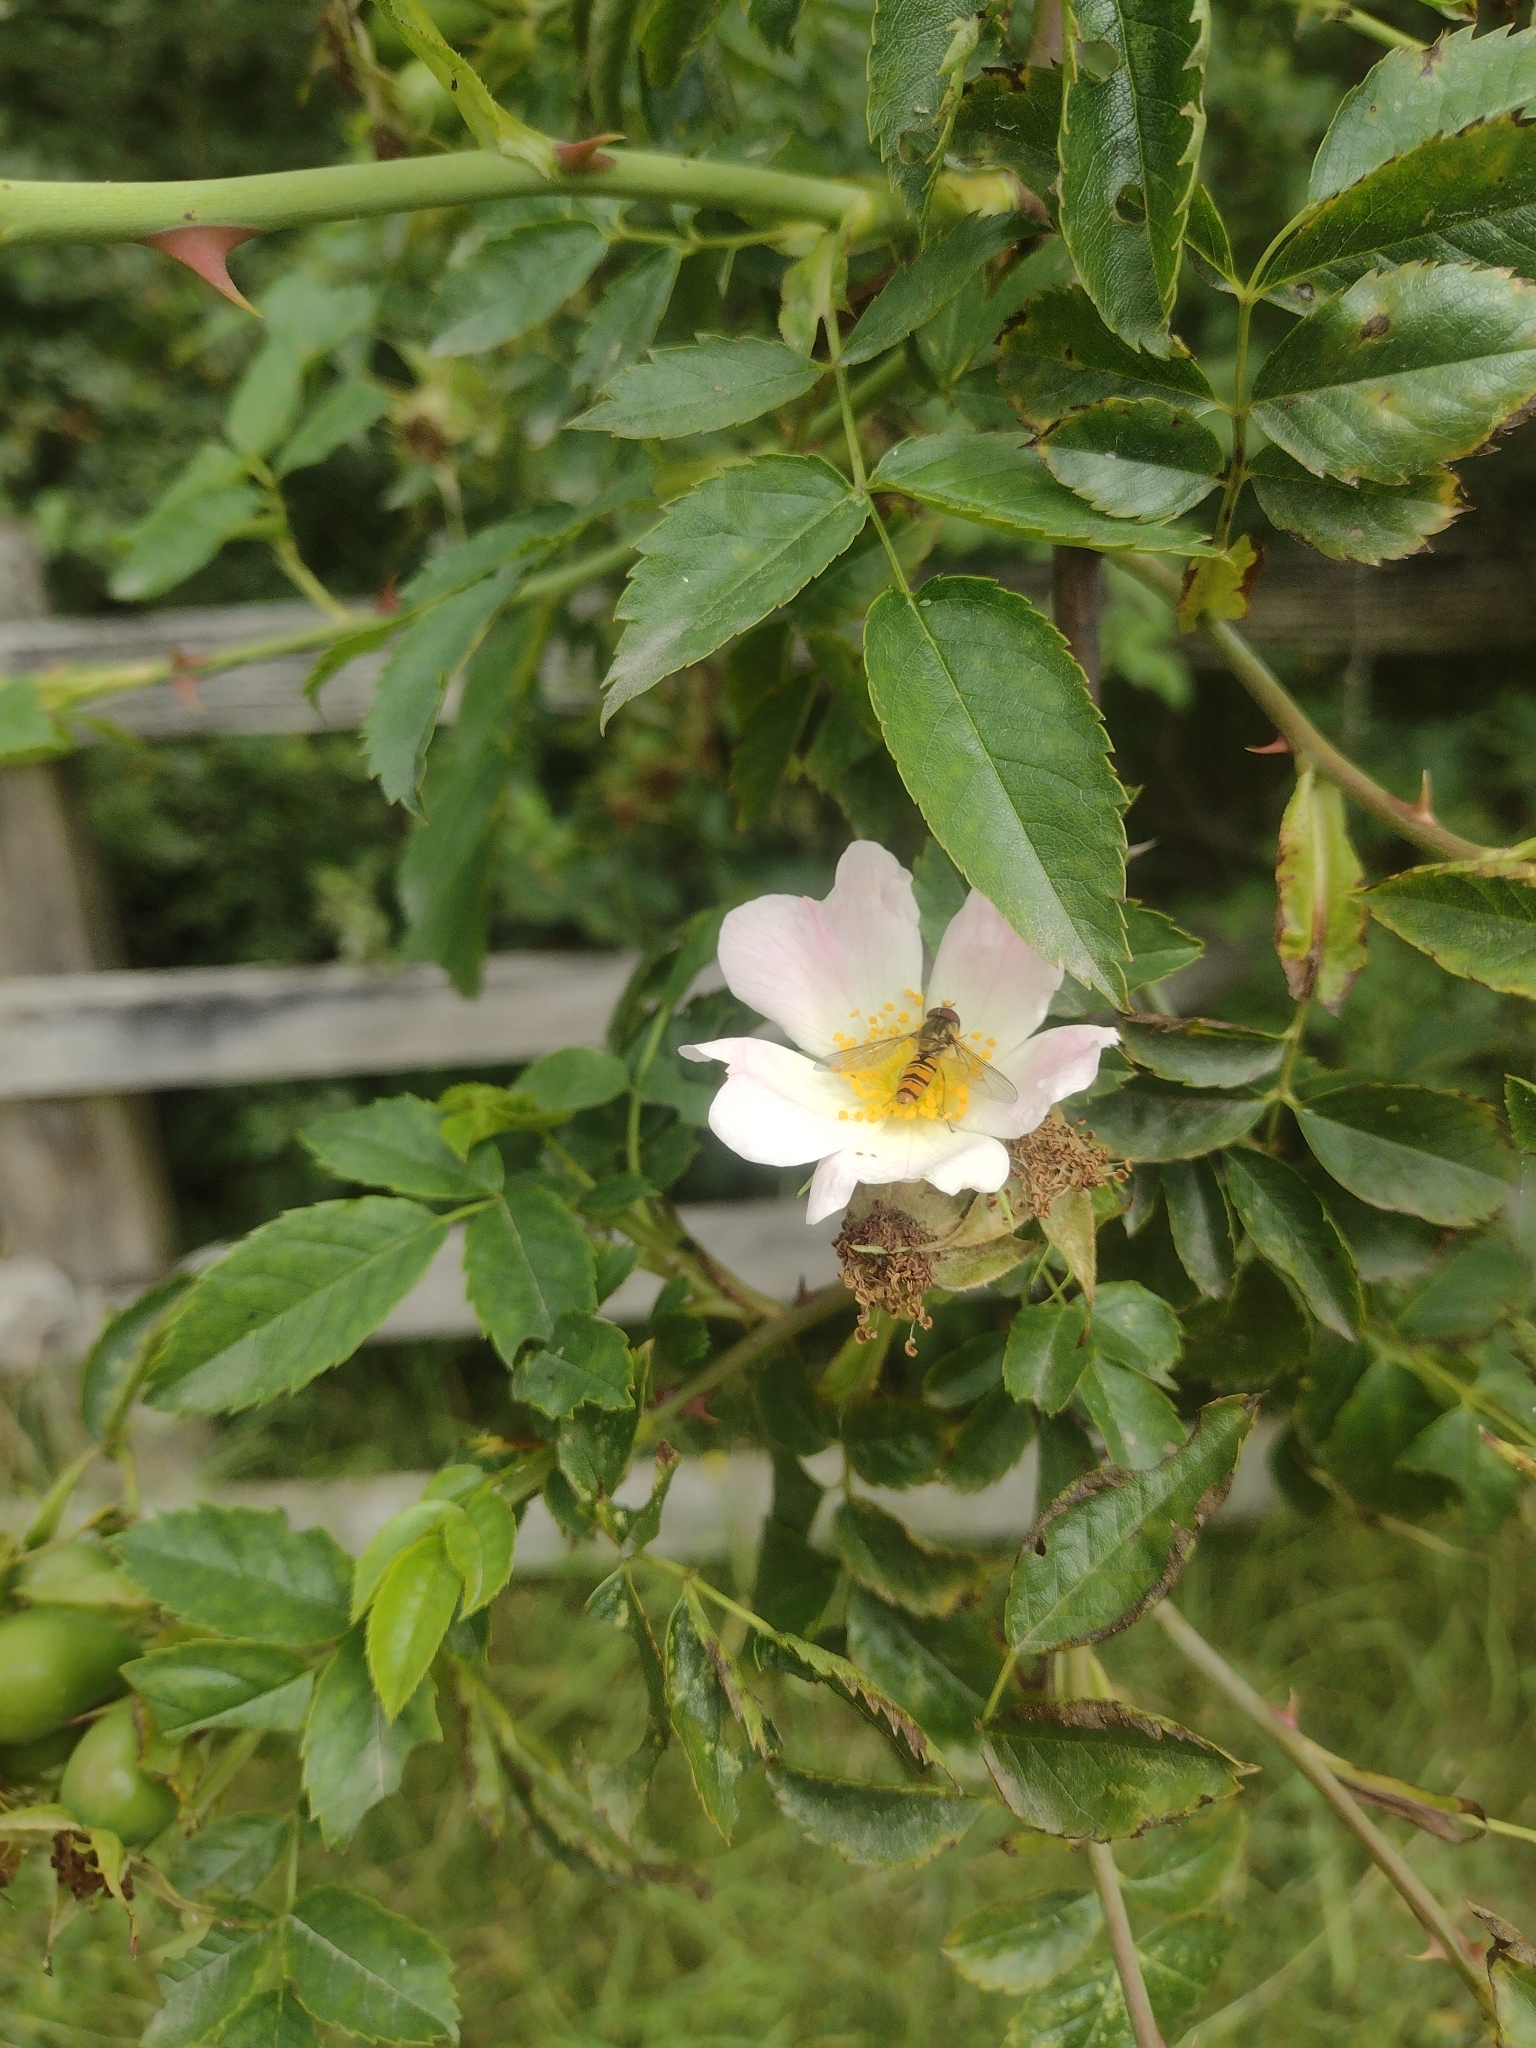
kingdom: Animalia
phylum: Arthropoda
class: Insecta
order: Diptera
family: Syrphidae
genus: Episyrphus
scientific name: Episyrphus balteatus
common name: Marmalade hoverfly
